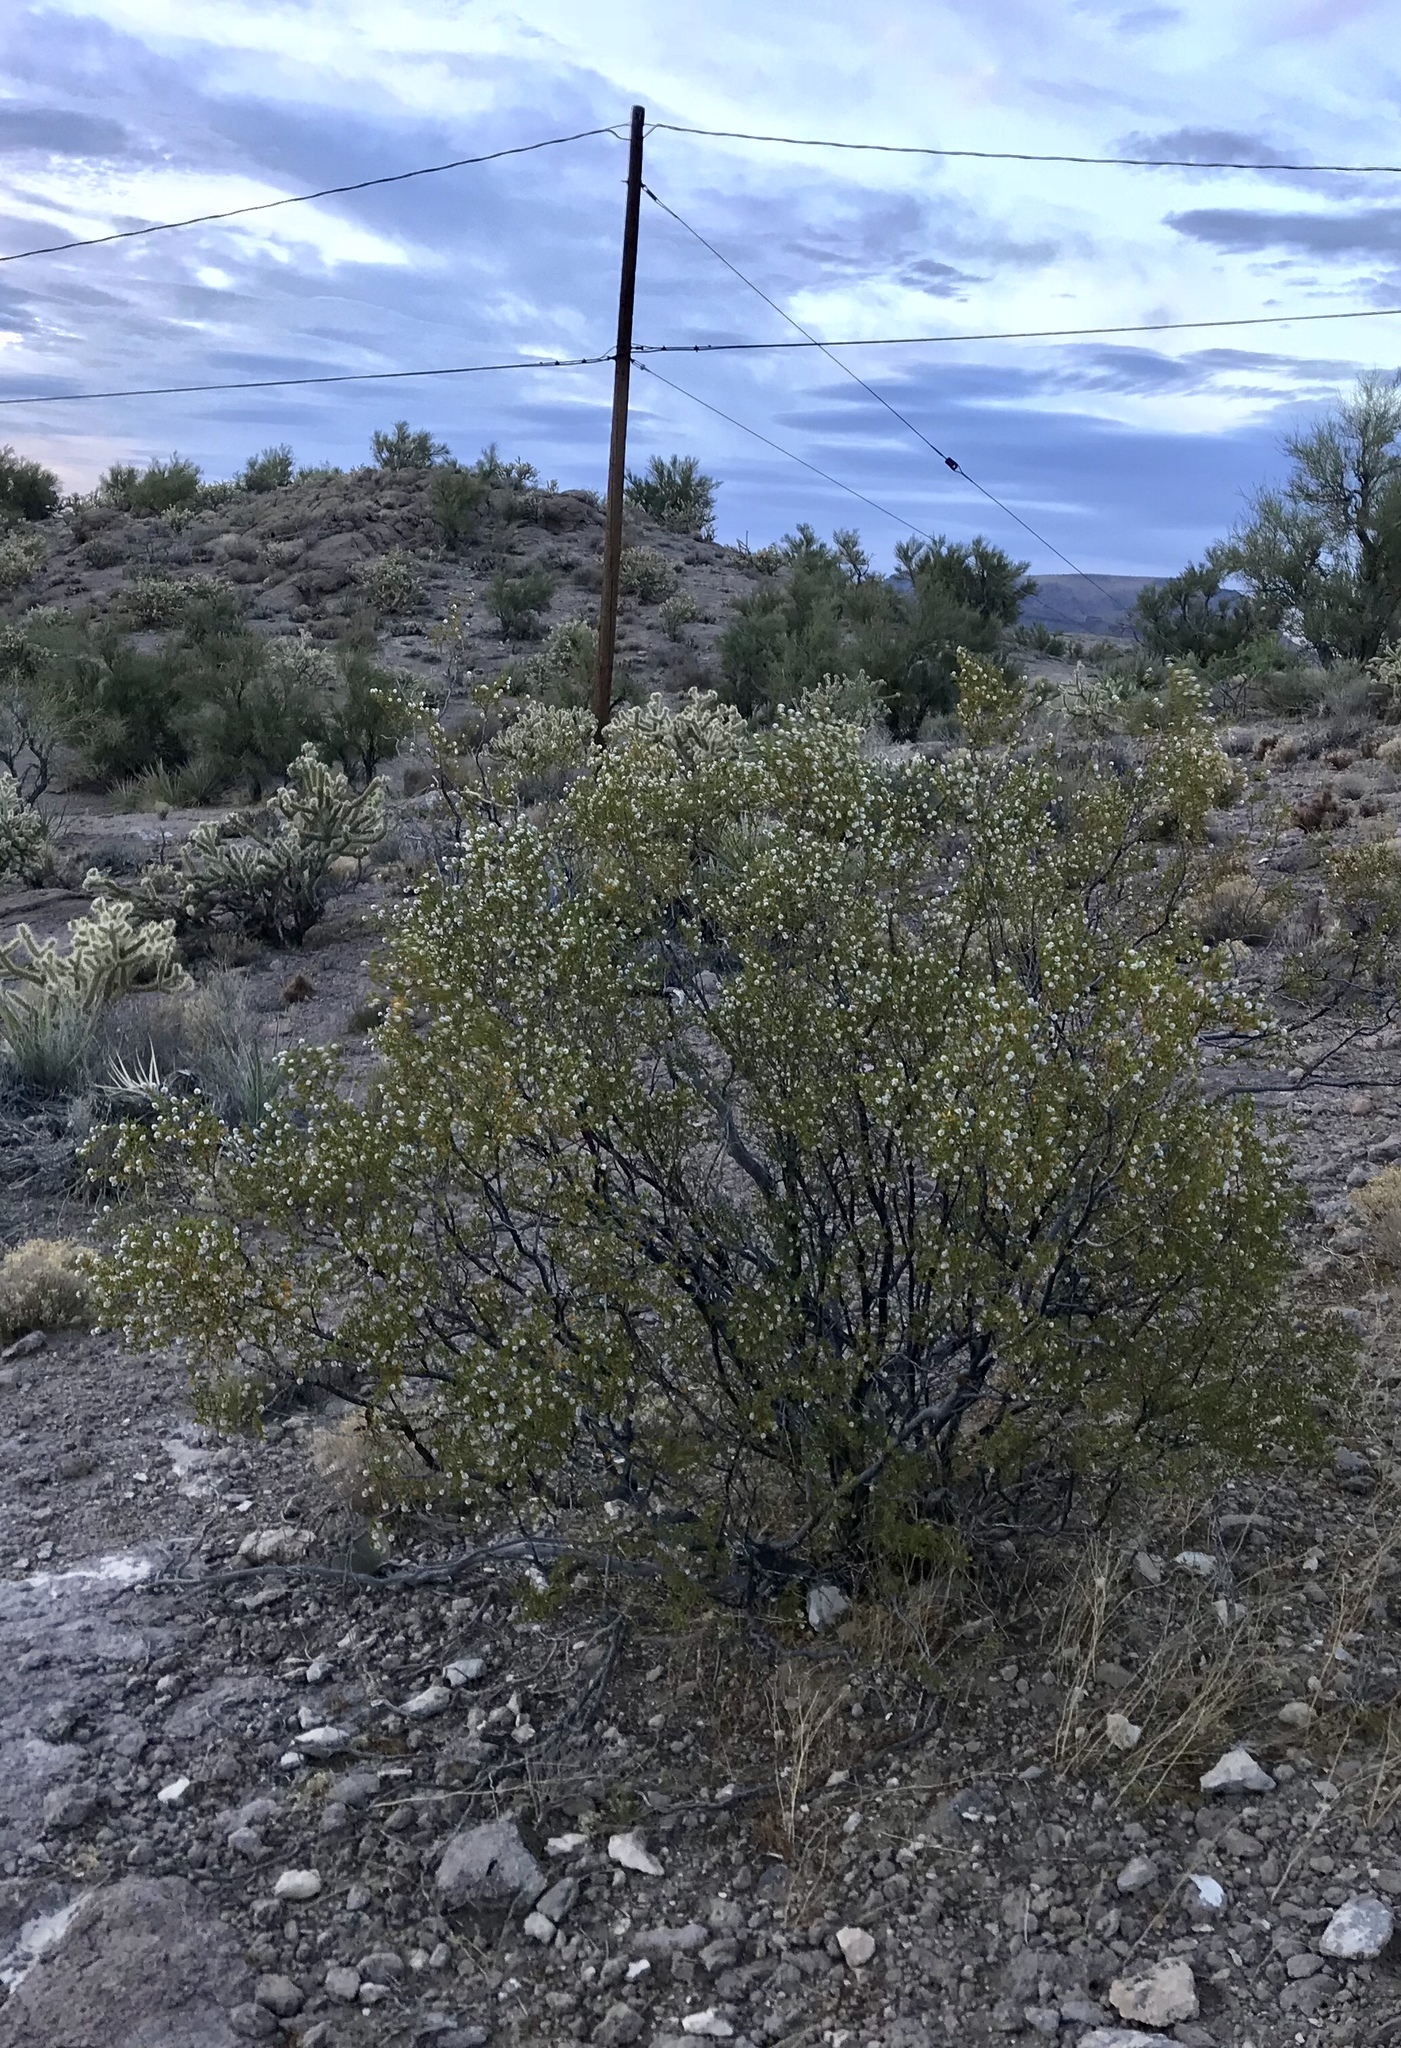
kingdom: Plantae
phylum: Tracheophyta
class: Magnoliopsida
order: Zygophyllales
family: Zygophyllaceae
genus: Larrea
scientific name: Larrea tridentata
